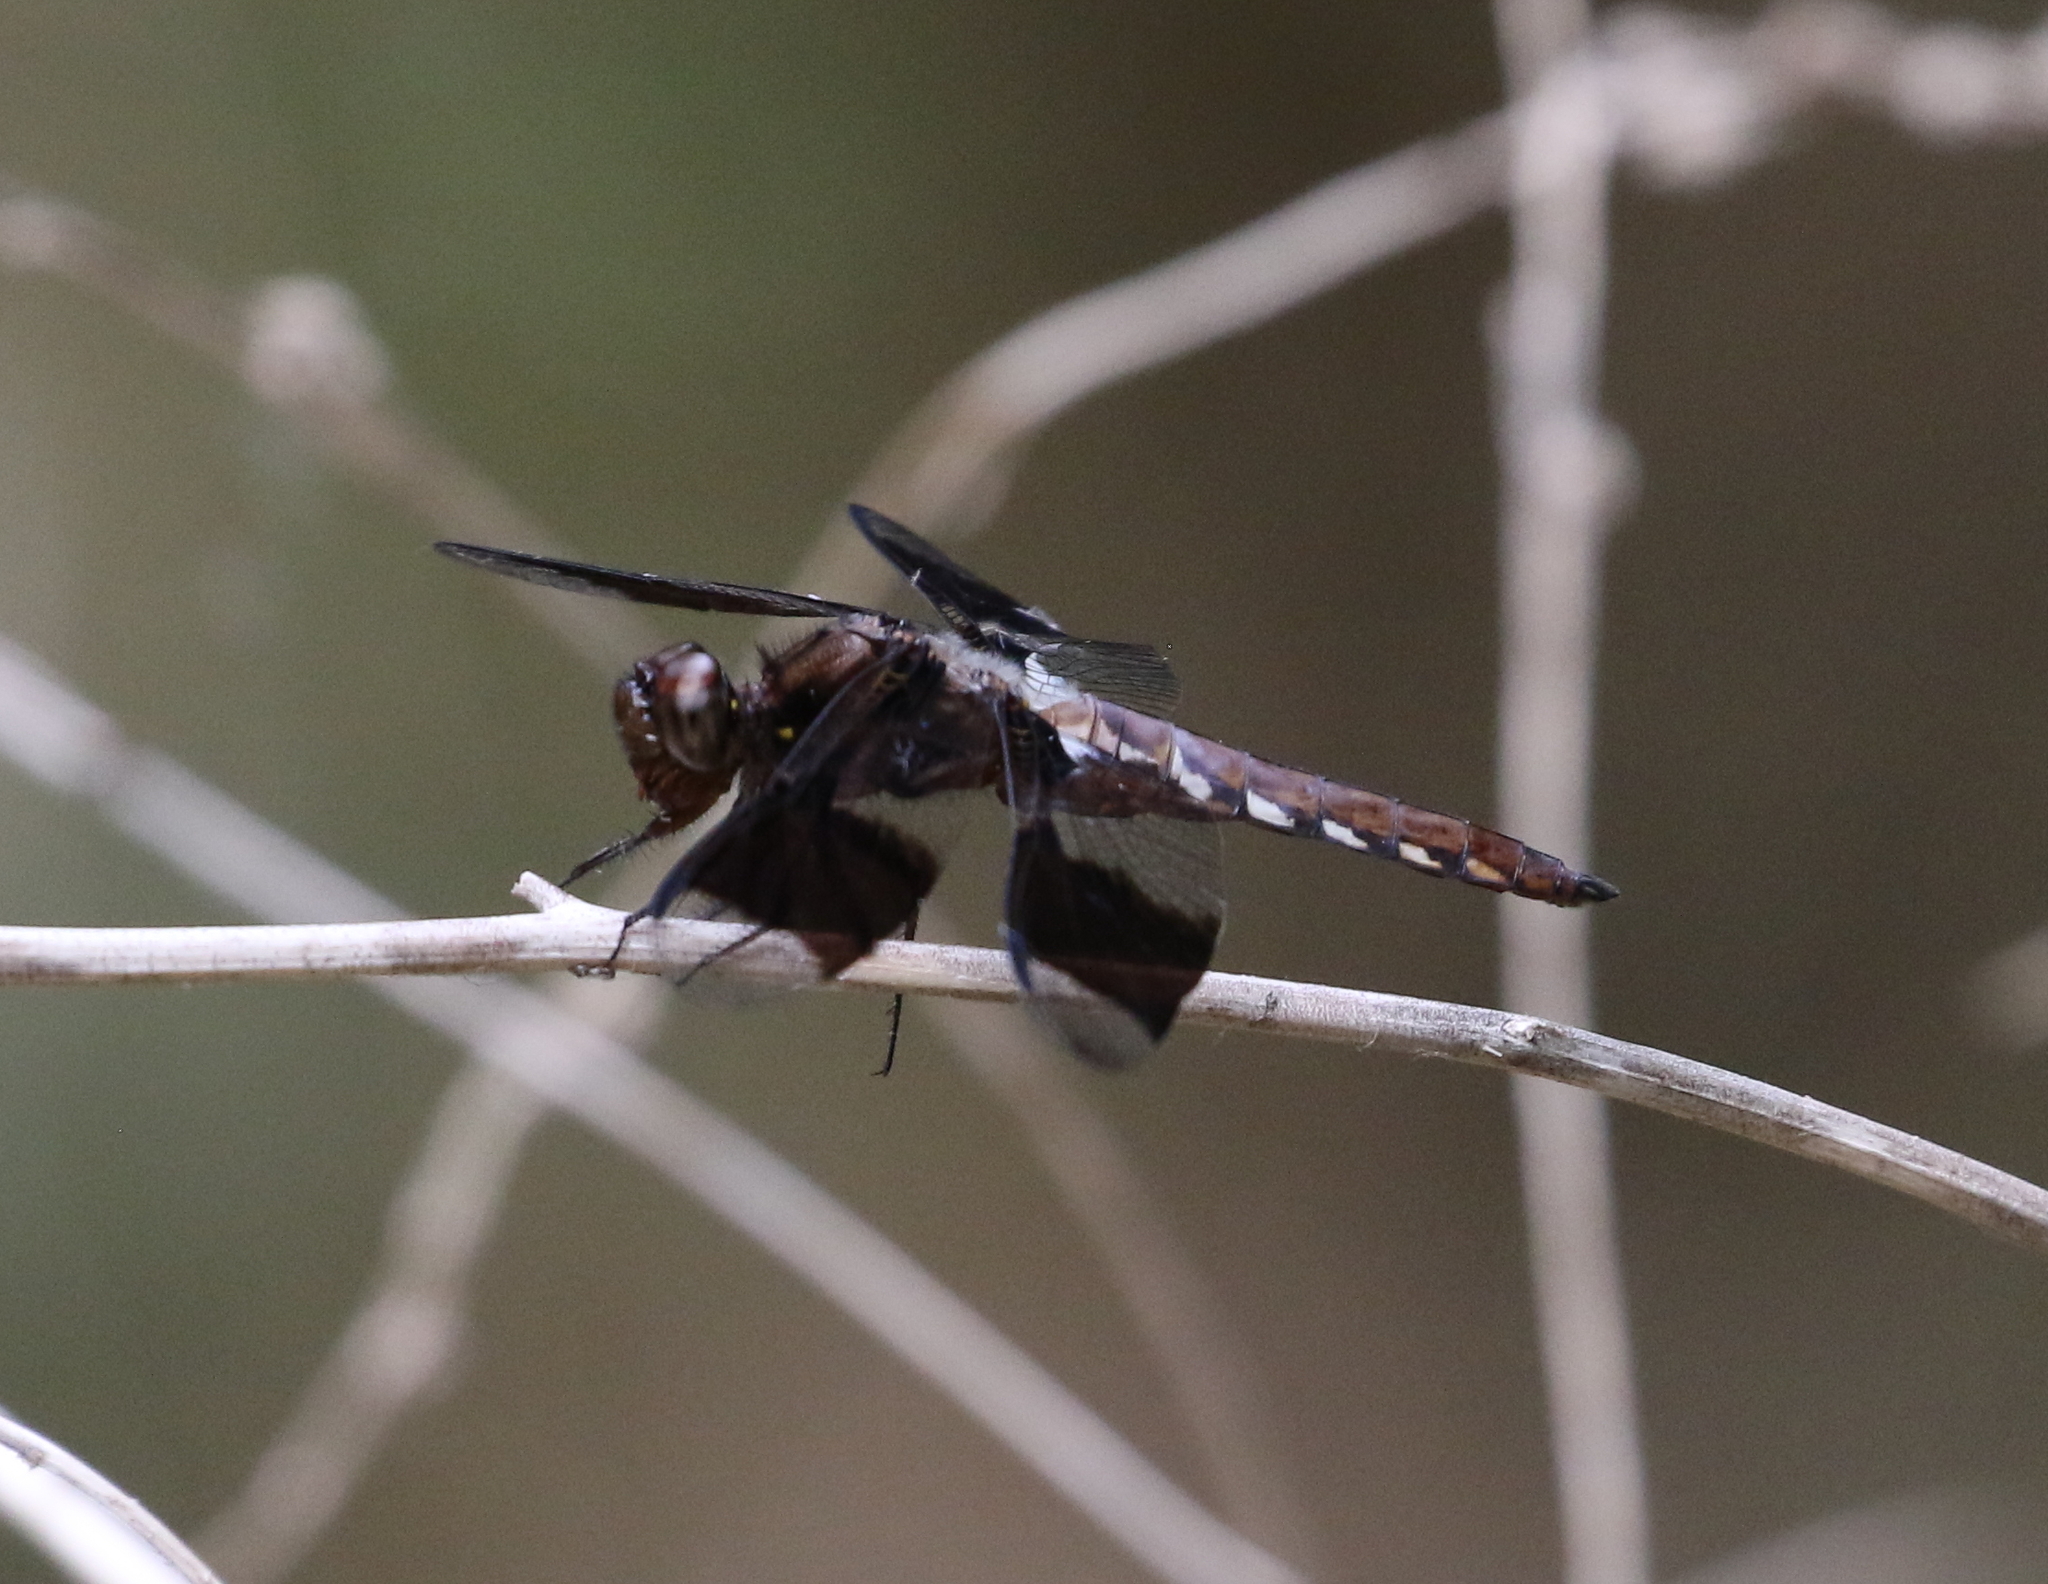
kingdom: Animalia
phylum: Arthropoda
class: Insecta
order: Odonata
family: Libellulidae
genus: Plathemis
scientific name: Plathemis lydia
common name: Common whitetail
